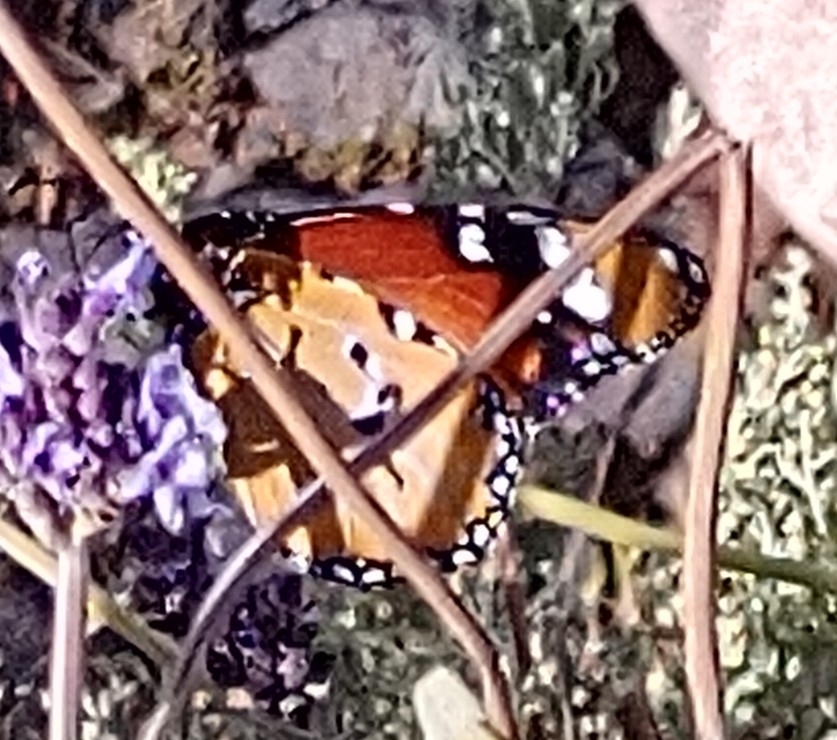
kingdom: Animalia
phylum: Arthropoda
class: Insecta
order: Lepidoptera
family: Nymphalidae
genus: Danaus
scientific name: Danaus chrysippus
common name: Plain tiger
